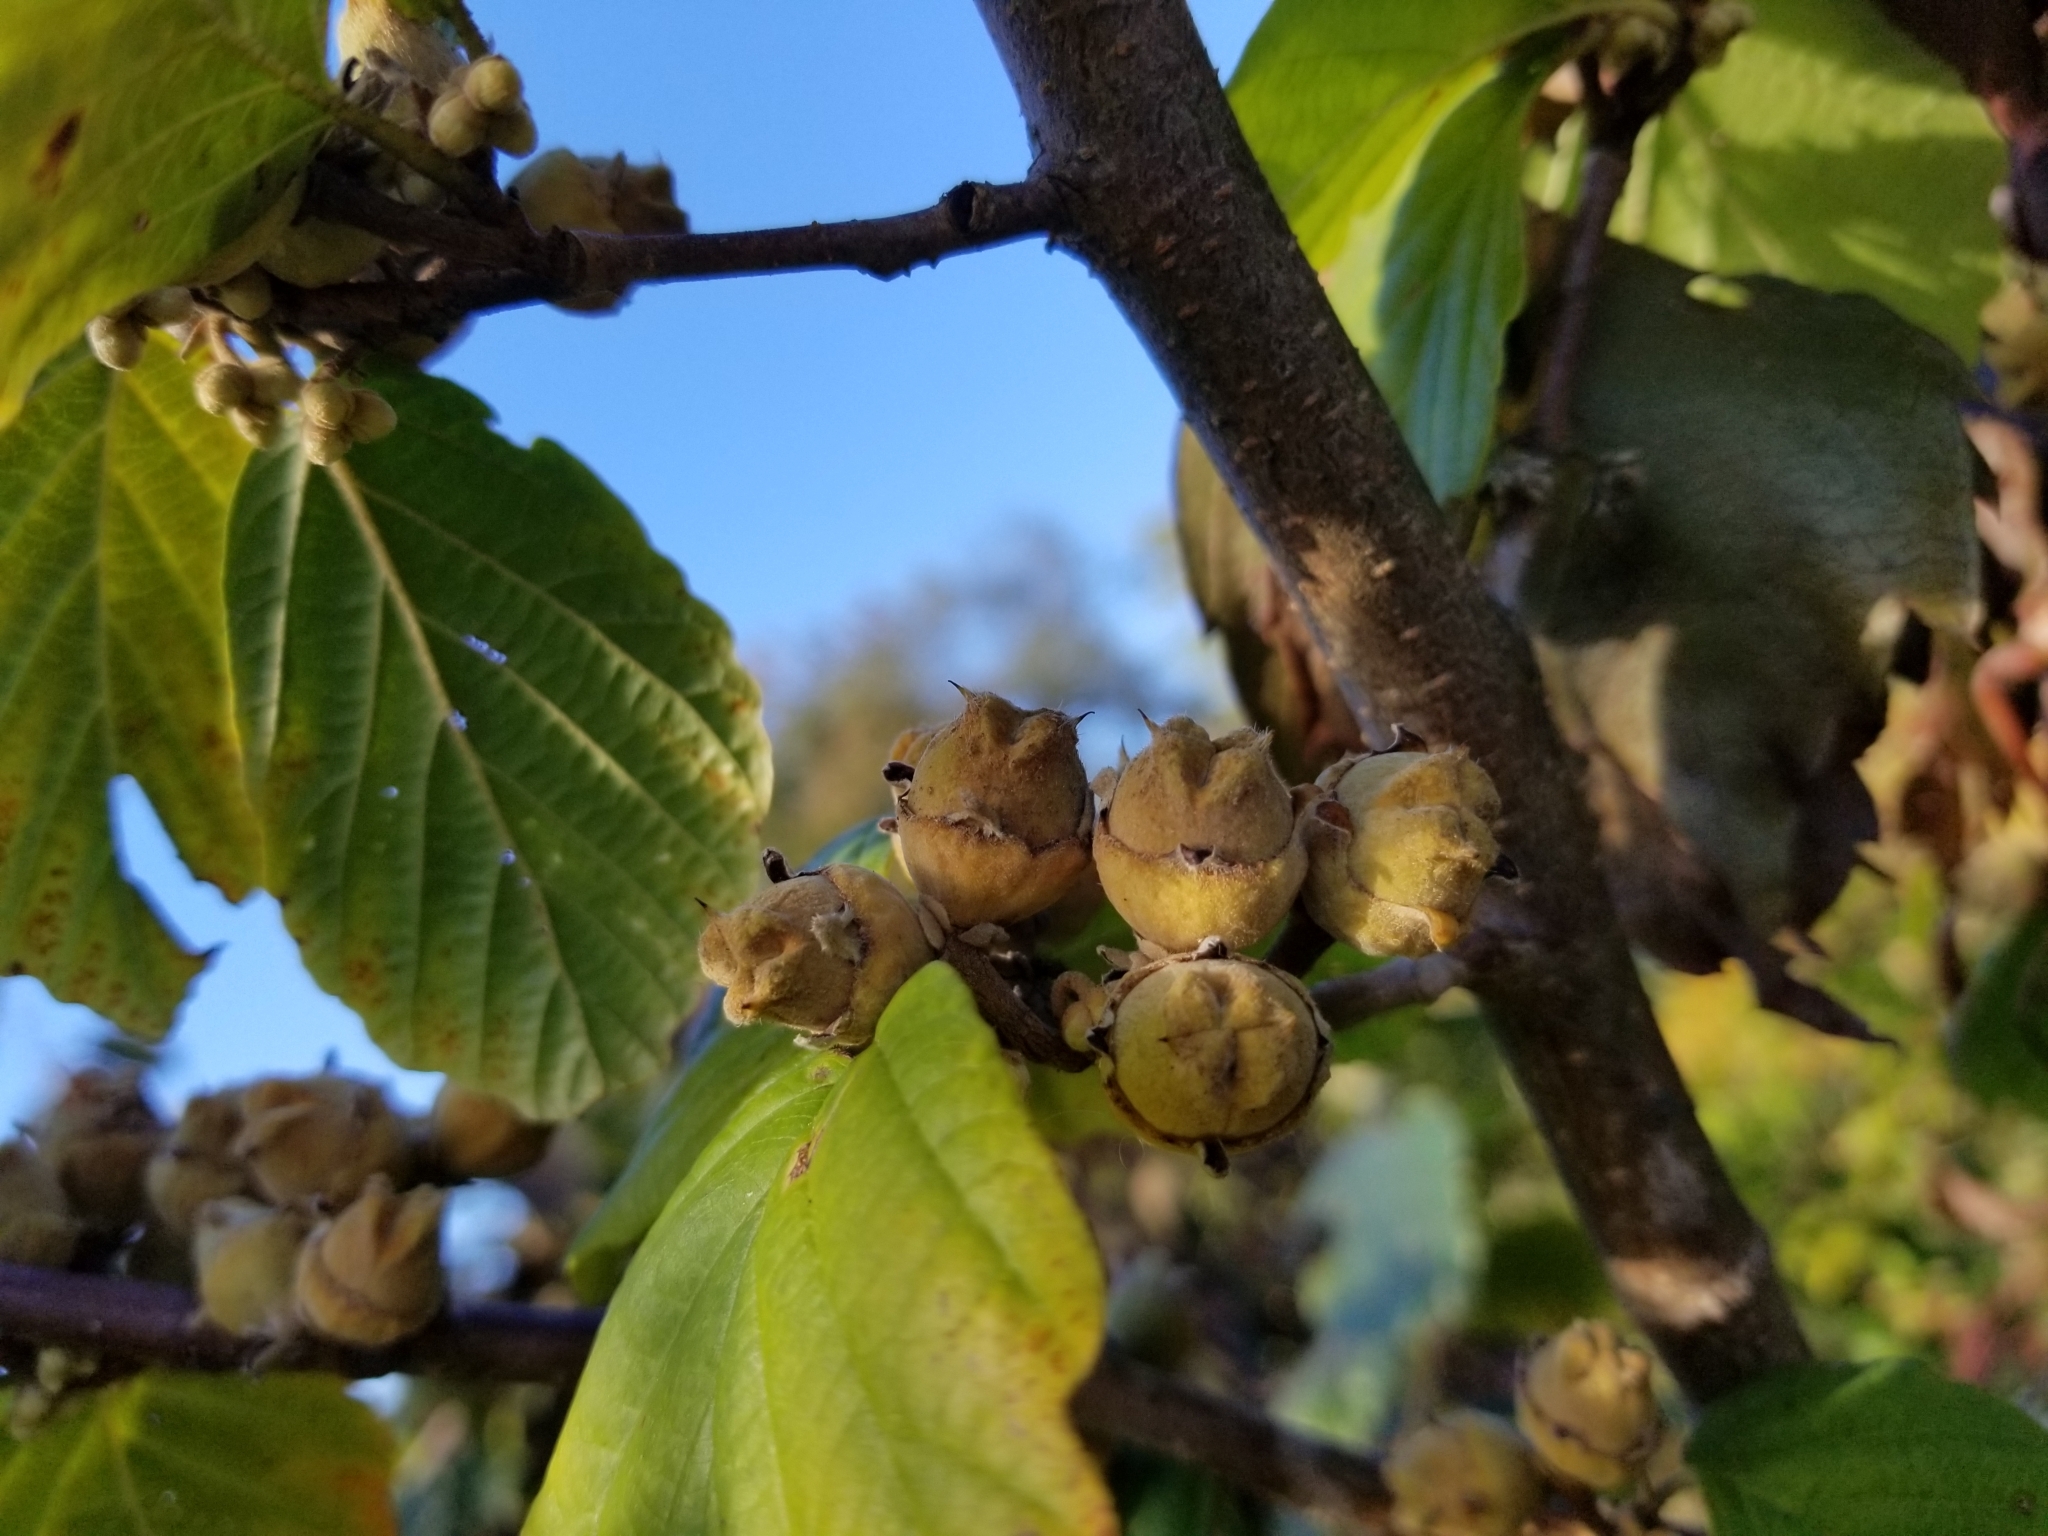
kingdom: Plantae
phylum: Tracheophyta
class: Magnoliopsida
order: Saxifragales
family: Hamamelidaceae
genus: Hamamelis
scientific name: Hamamelis virginiana
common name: Witch-hazel
